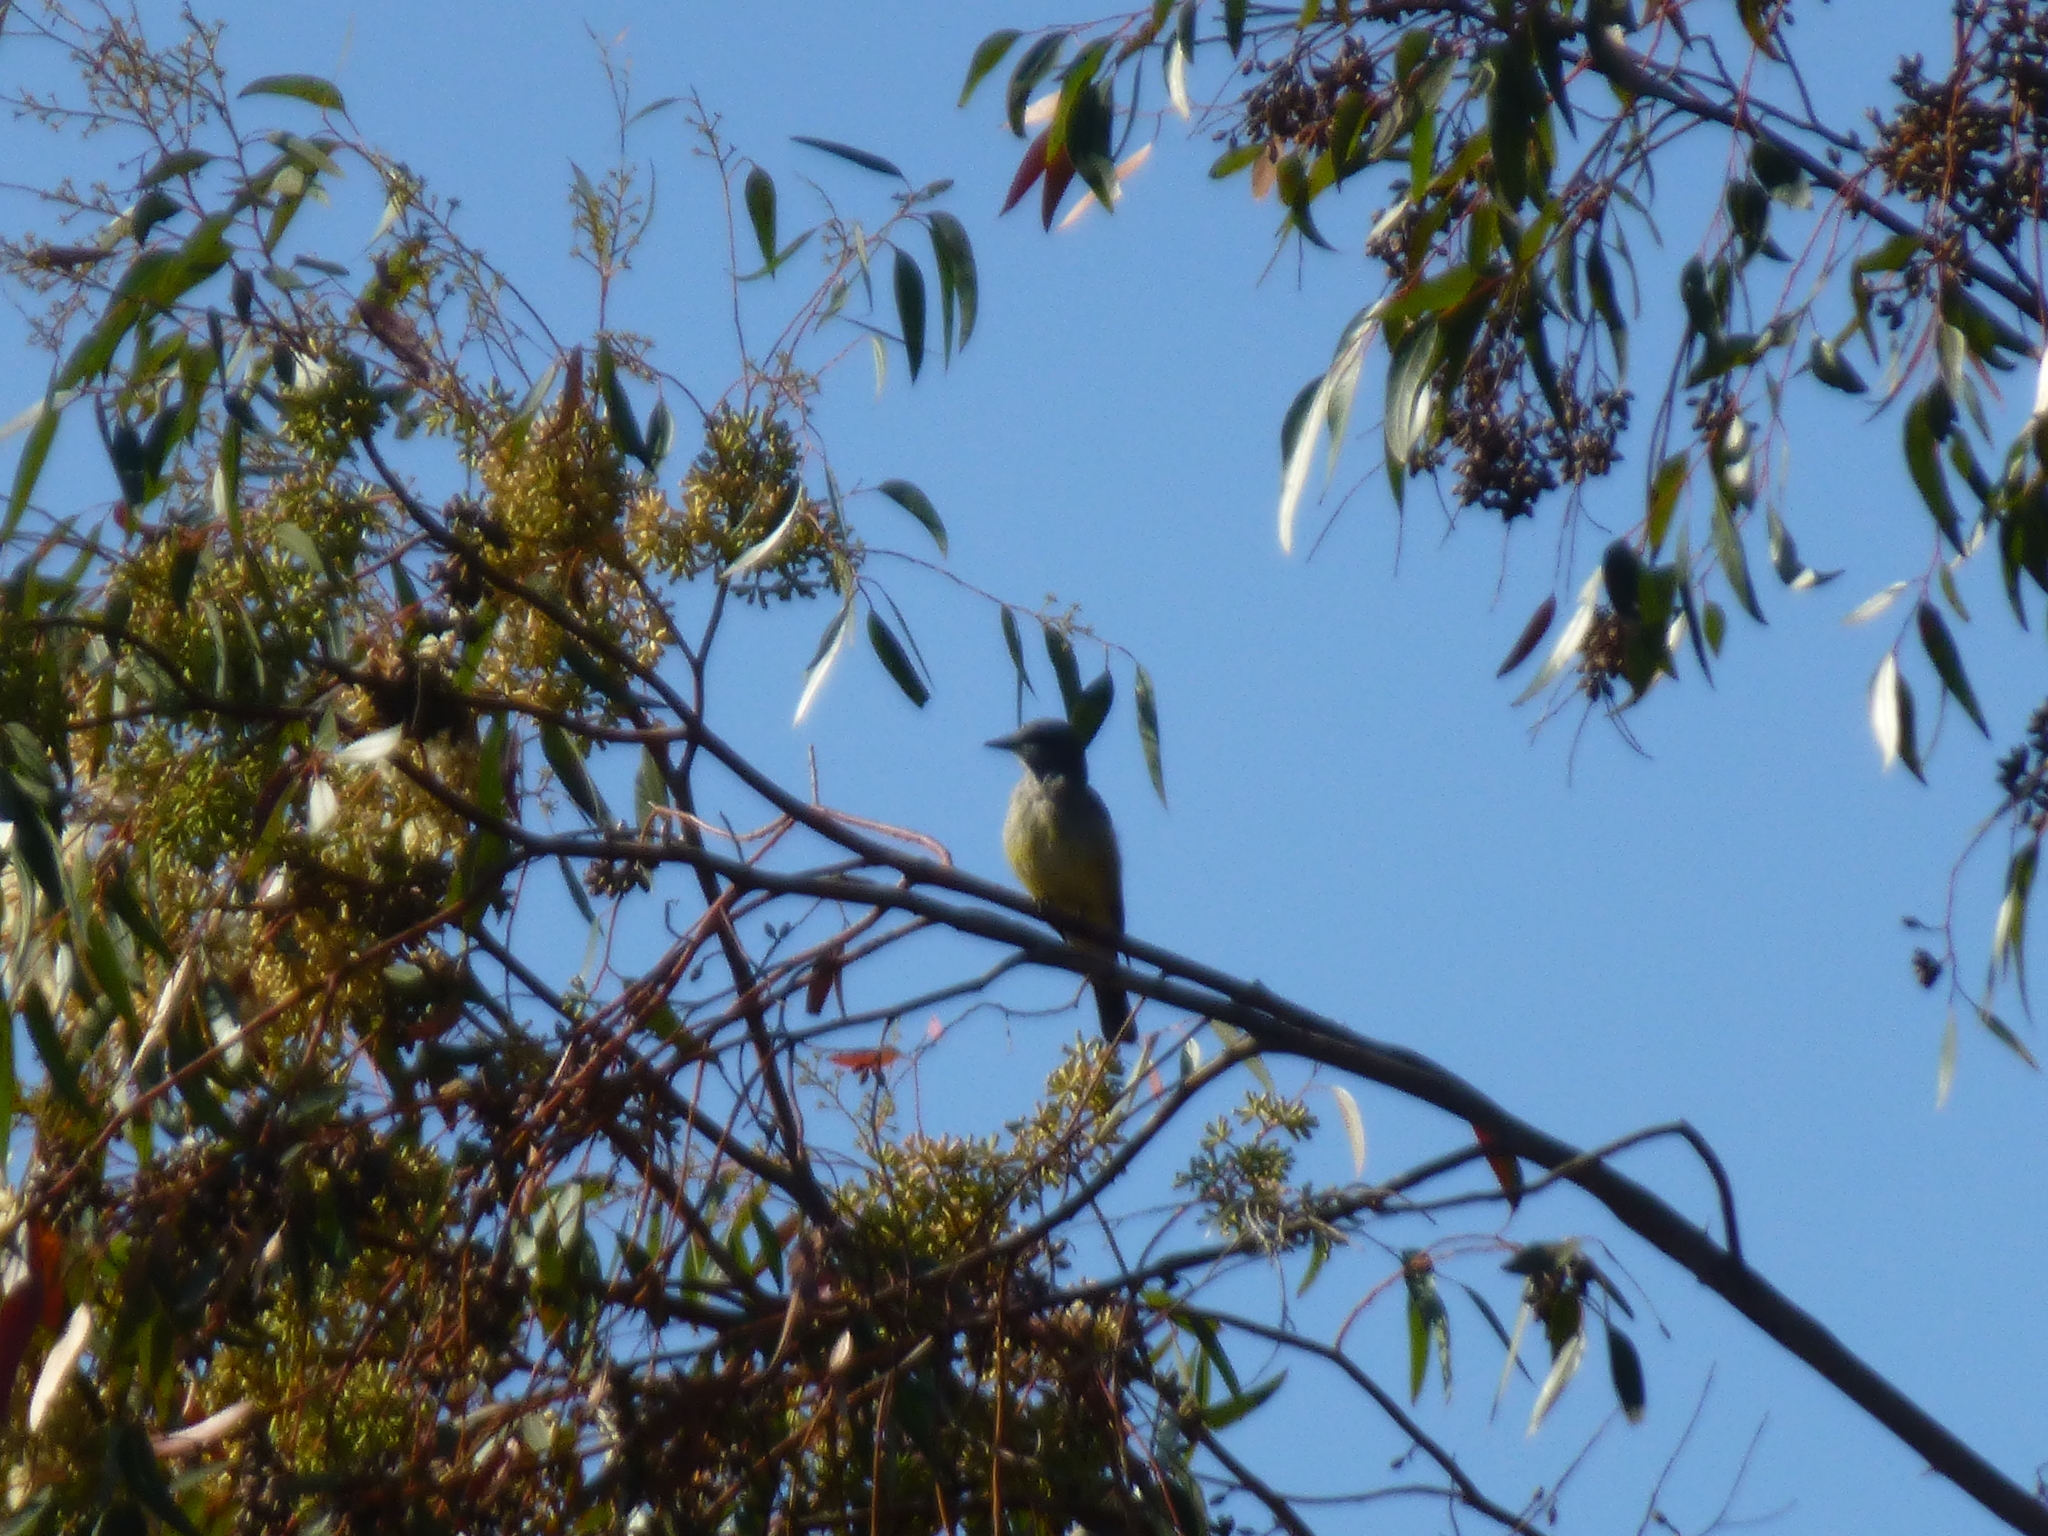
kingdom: Animalia
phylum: Chordata
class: Aves
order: Passeriformes
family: Tyrannidae
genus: Tyrannus
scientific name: Tyrannus vociferans
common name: Cassin's kingbird
